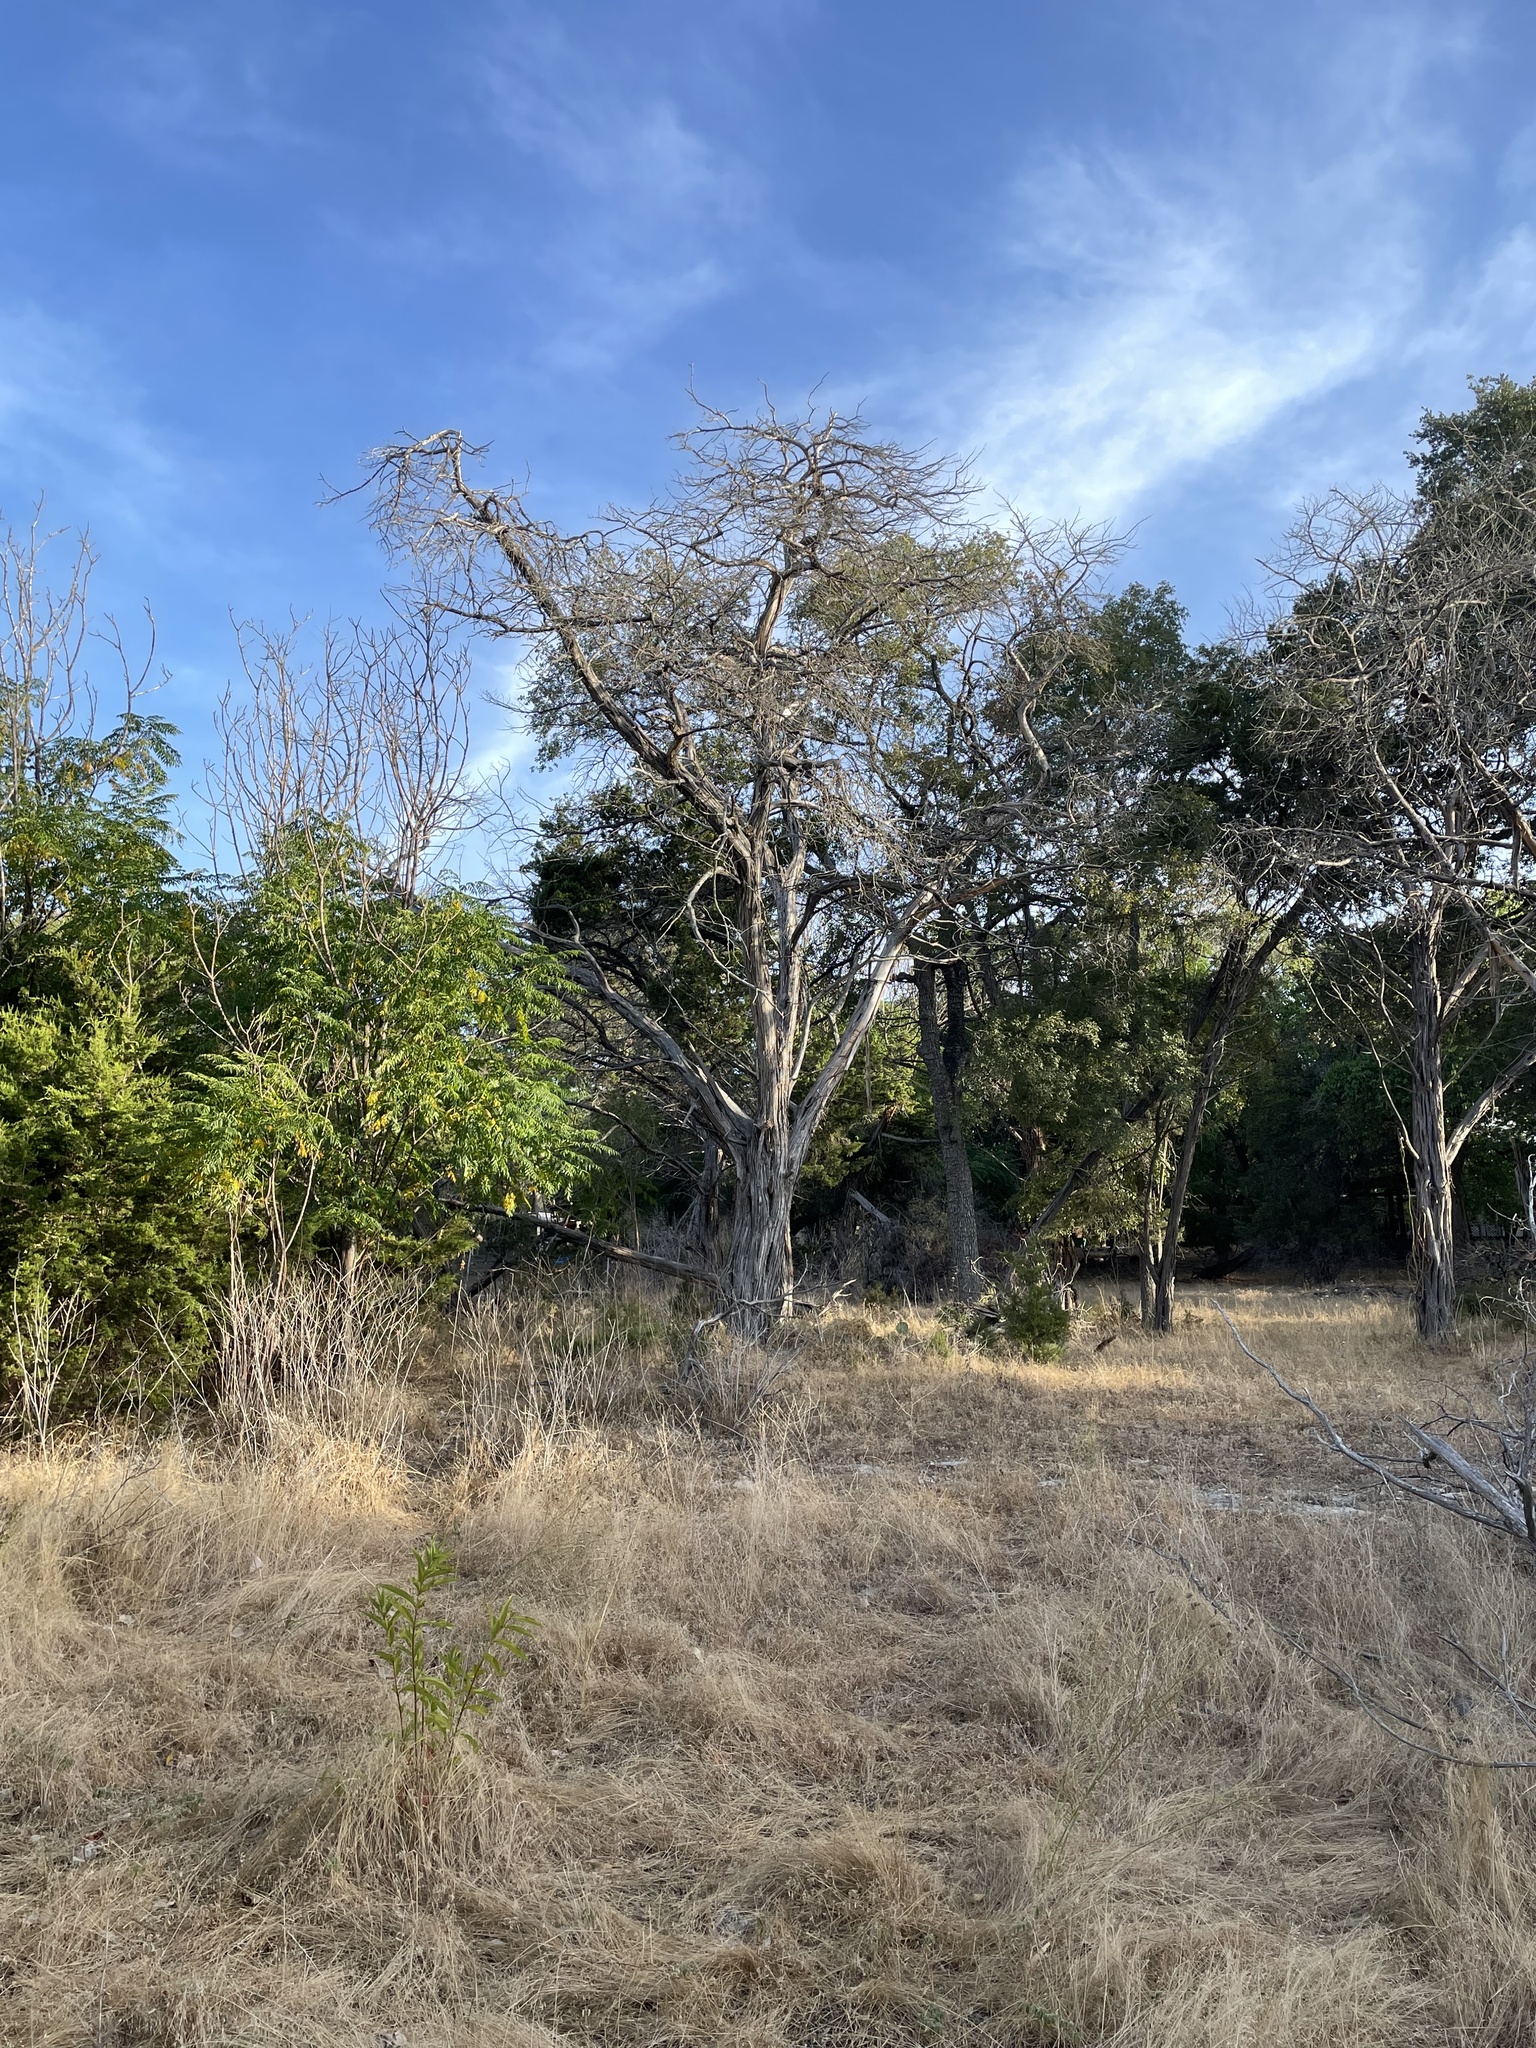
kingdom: Plantae
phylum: Tracheophyta
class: Pinopsida
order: Pinales
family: Cupressaceae
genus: Juniperus
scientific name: Juniperus ashei
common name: Mexican juniper
